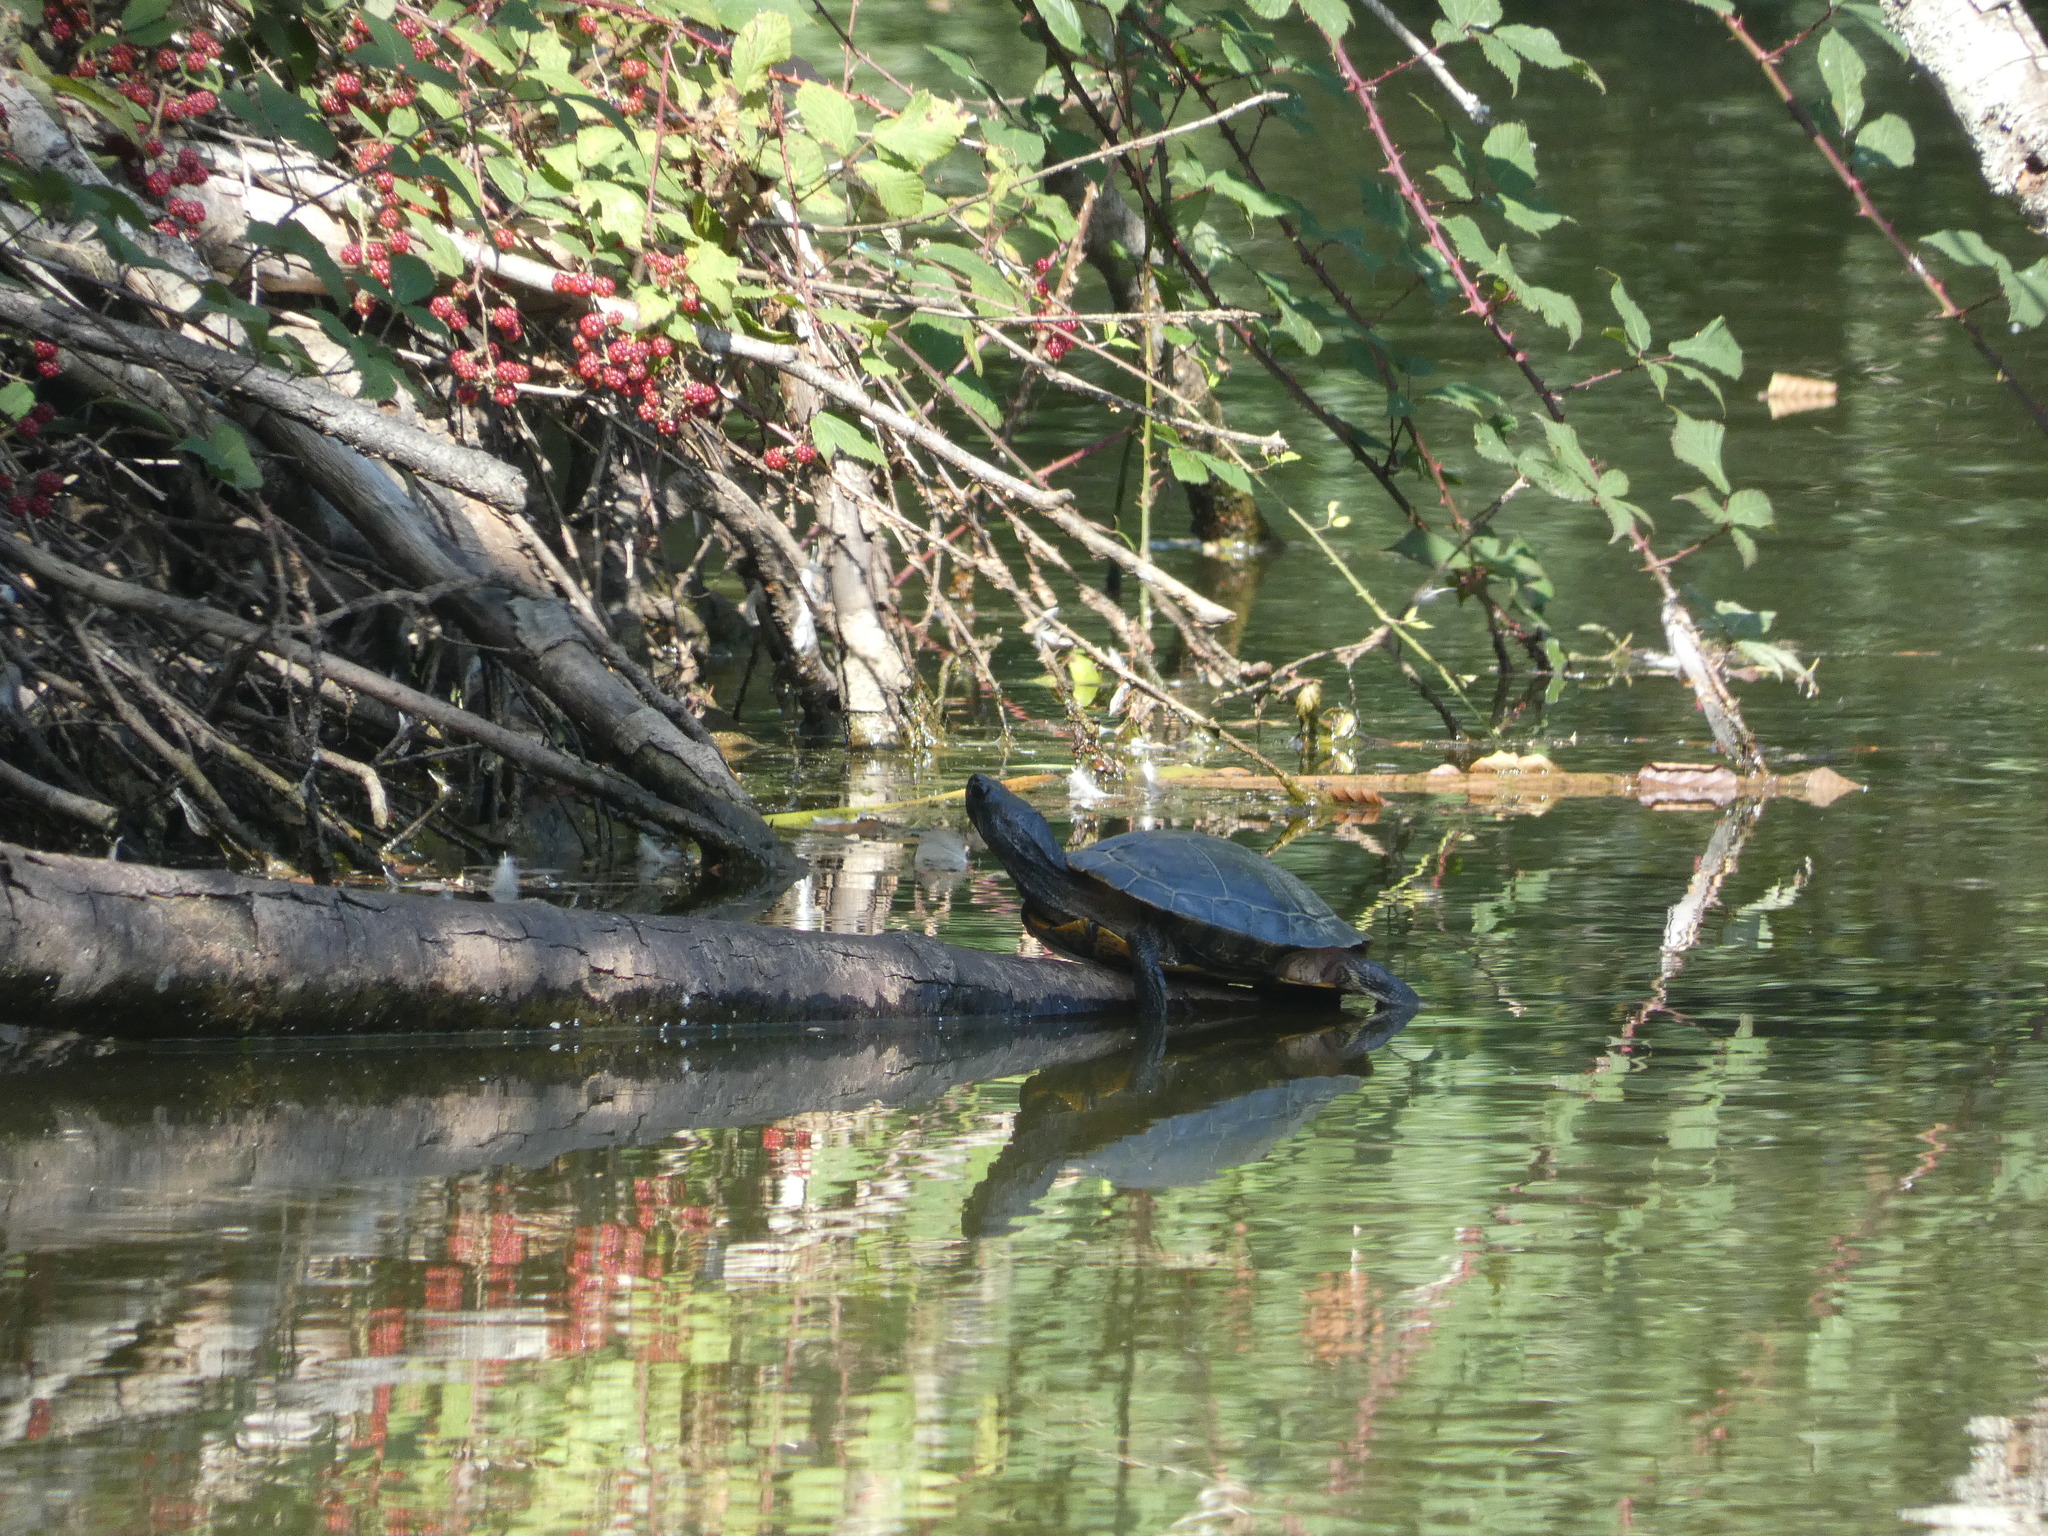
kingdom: Animalia
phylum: Chordata
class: Testudines
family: Emydidae
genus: Trachemys
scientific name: Trachemys scripta
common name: Slider
